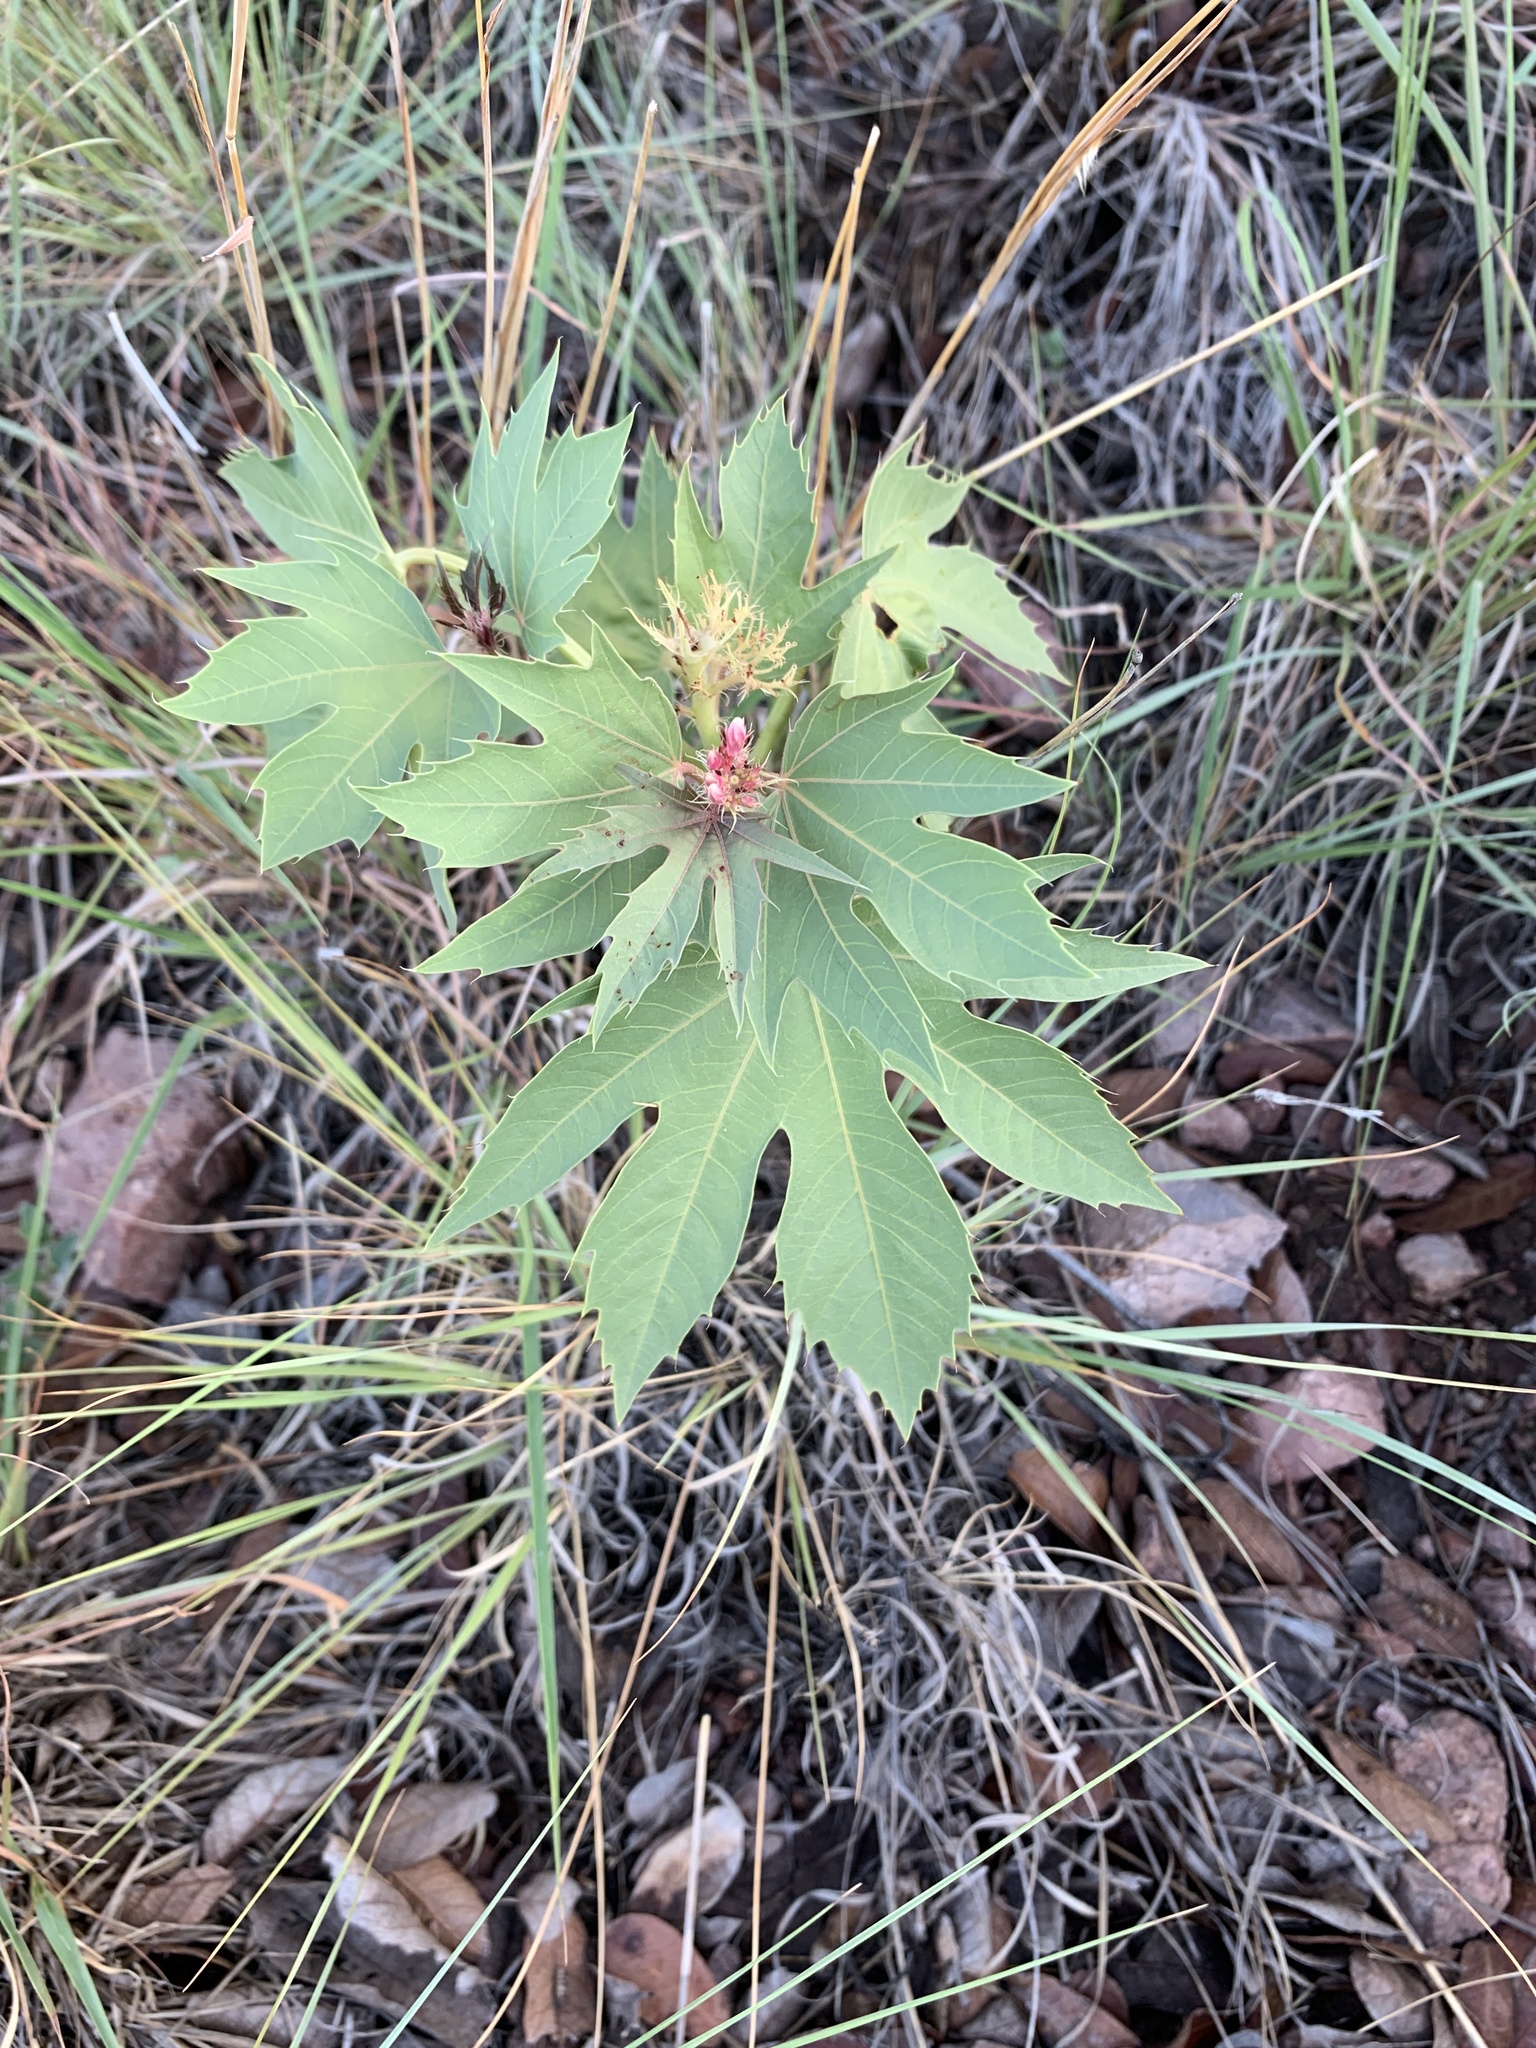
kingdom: Plantae
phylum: Tracheophyta
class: Magnoliopsida
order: Malpighiales
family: Euphorbiaceae
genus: Jatropha
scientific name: Jatropha macrorhiza
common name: Ragged nettlespurge
